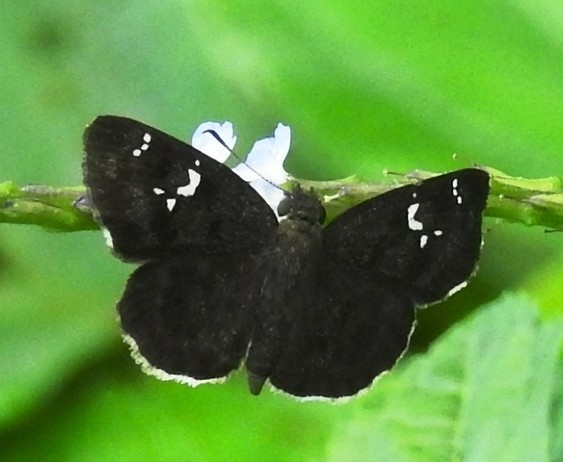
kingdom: Animalia
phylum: Arthropoda
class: Insecta
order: Lepidoptera
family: Hesperiidae
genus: Sarangesa
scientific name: Sarangesa dasahara
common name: Common small flat
